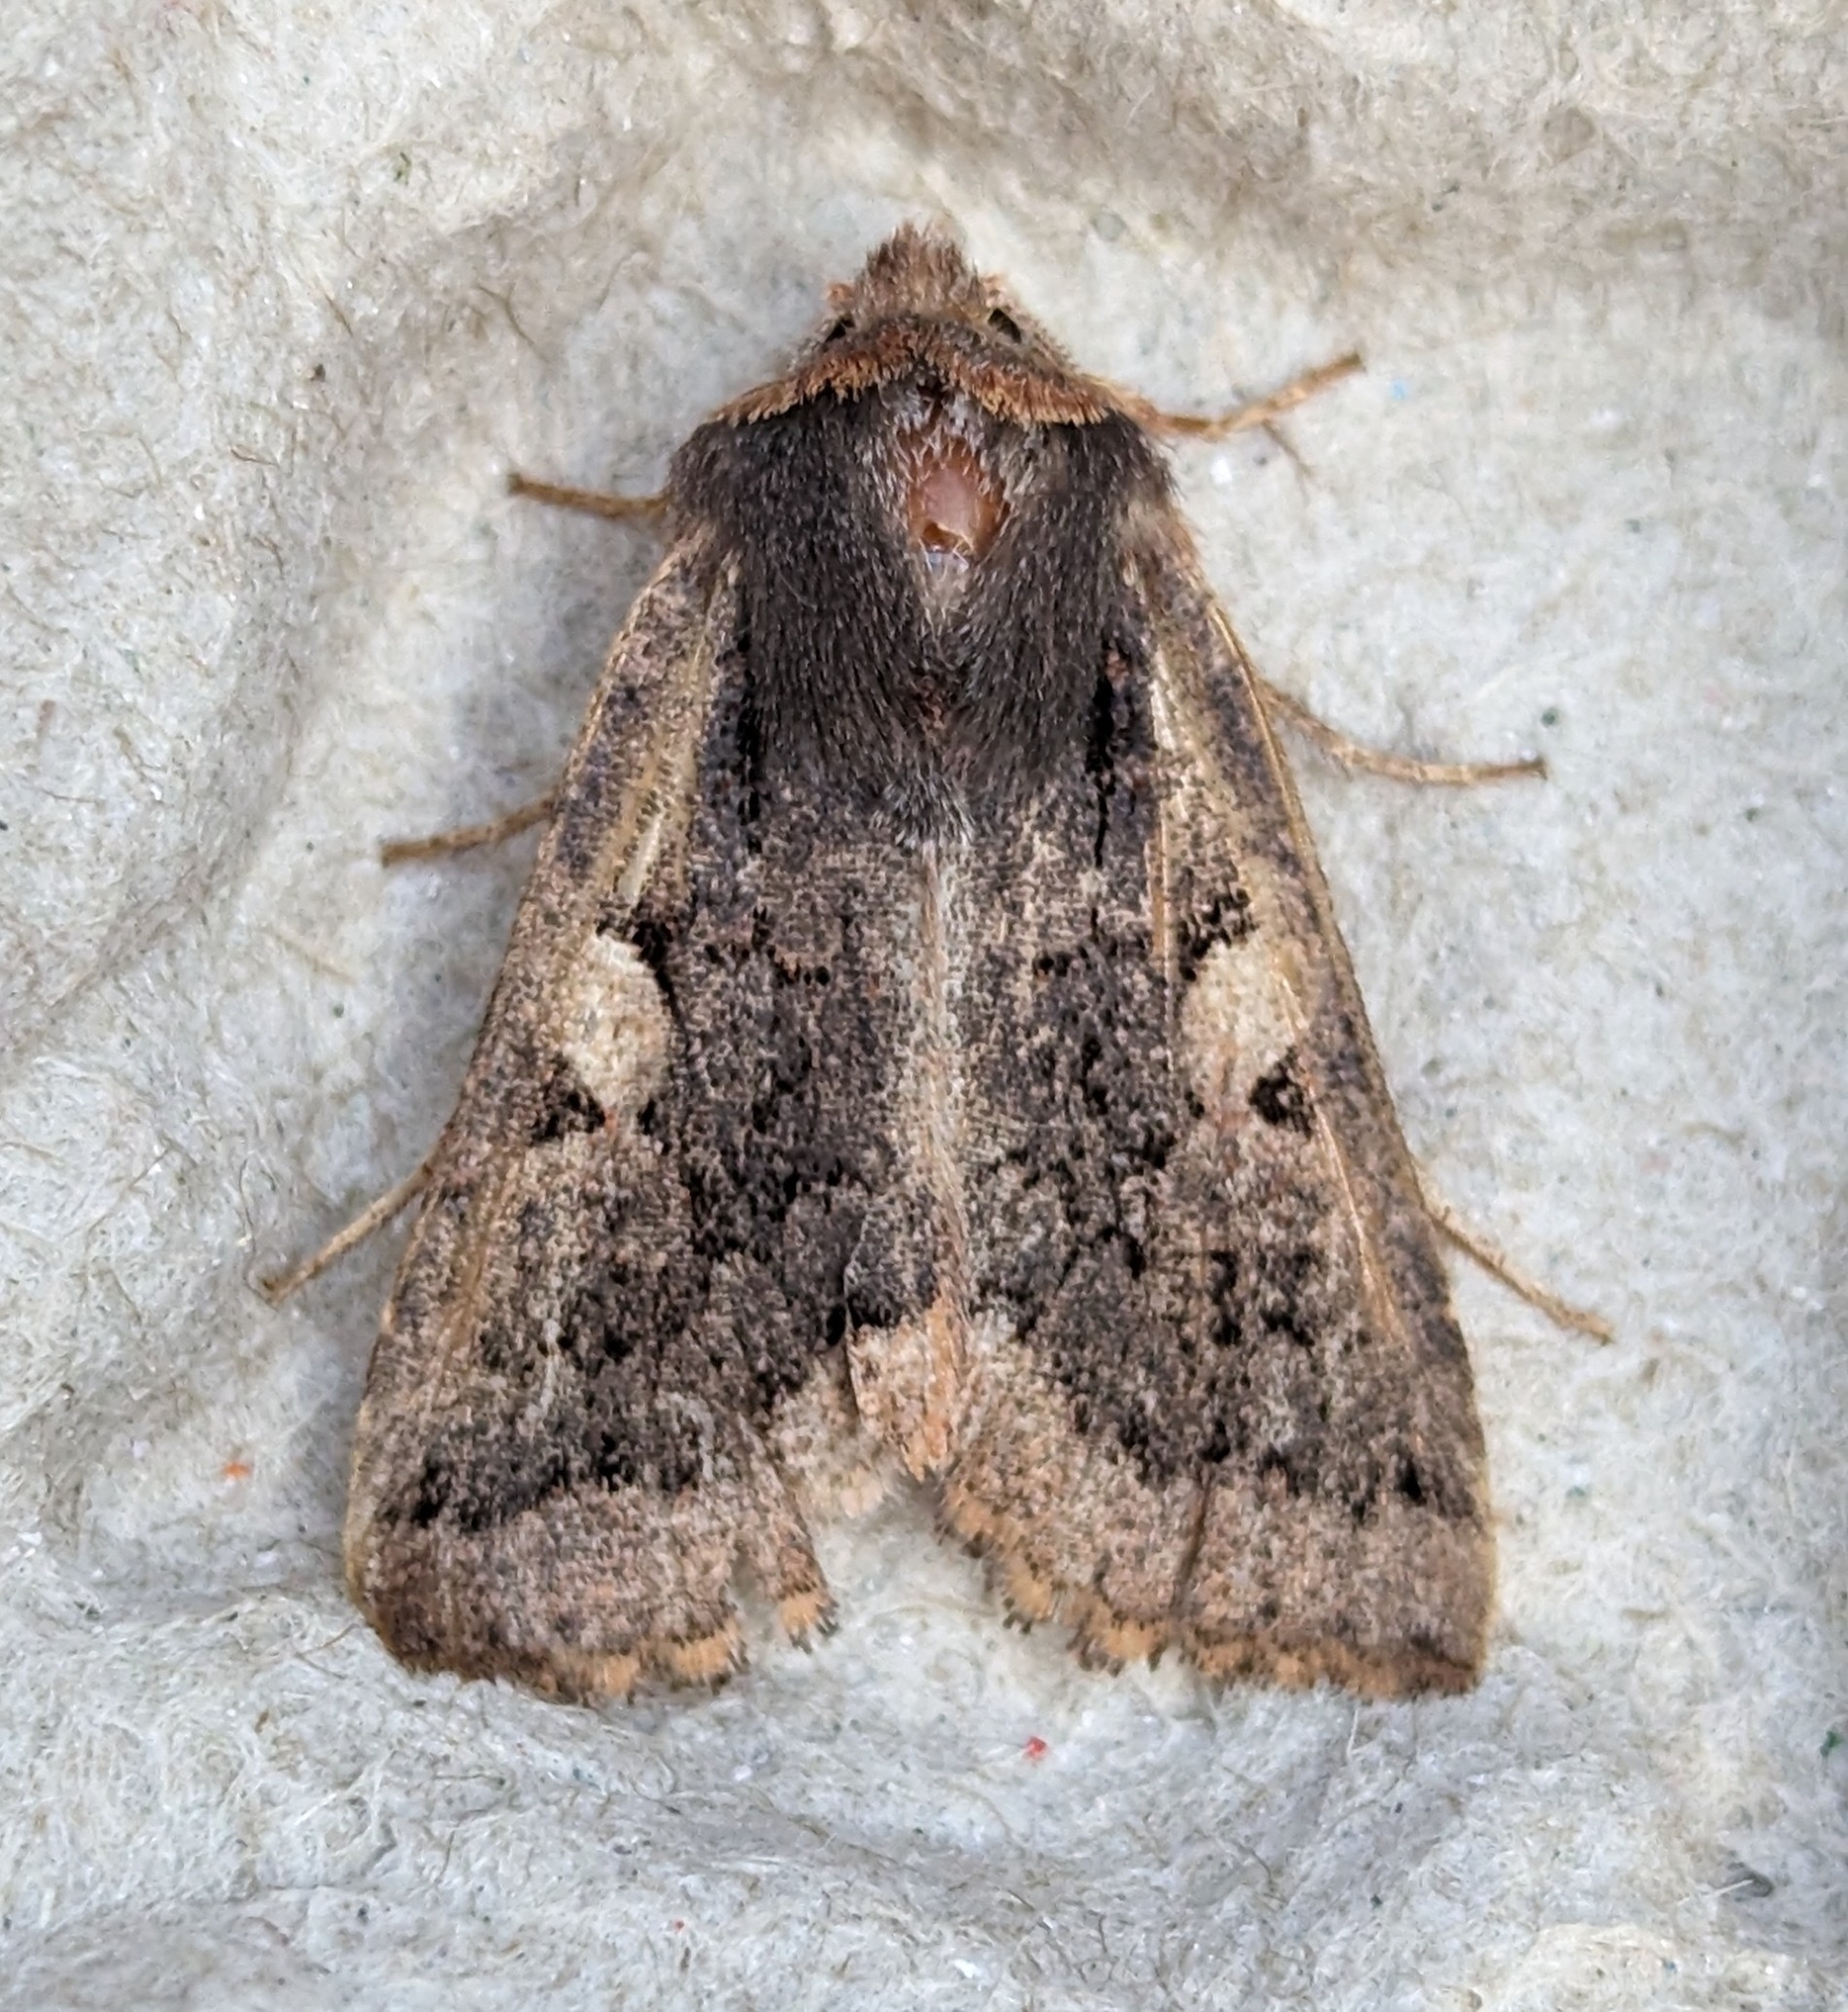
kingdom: Animalia
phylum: Arthropoda
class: Insecta
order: Lepidoptera
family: Noctuidae
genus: Orthosia
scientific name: Orthosia praeses
